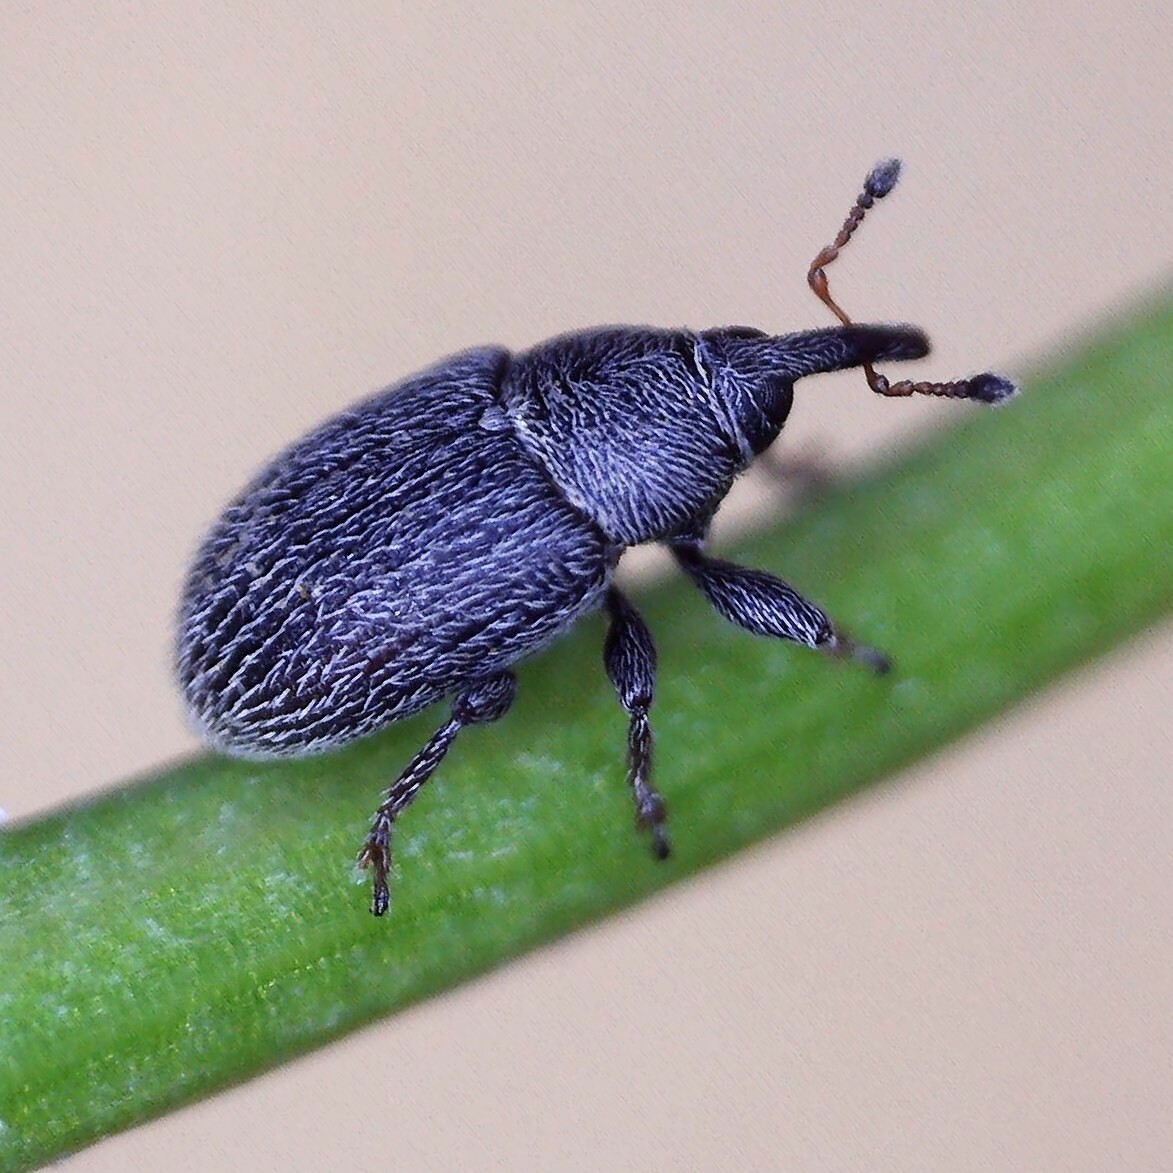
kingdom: Animalia
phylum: Arthropoda
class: Insecta
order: Coleoptera
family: Curculionidae
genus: Mecinus
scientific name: Mecinus pascuorum
